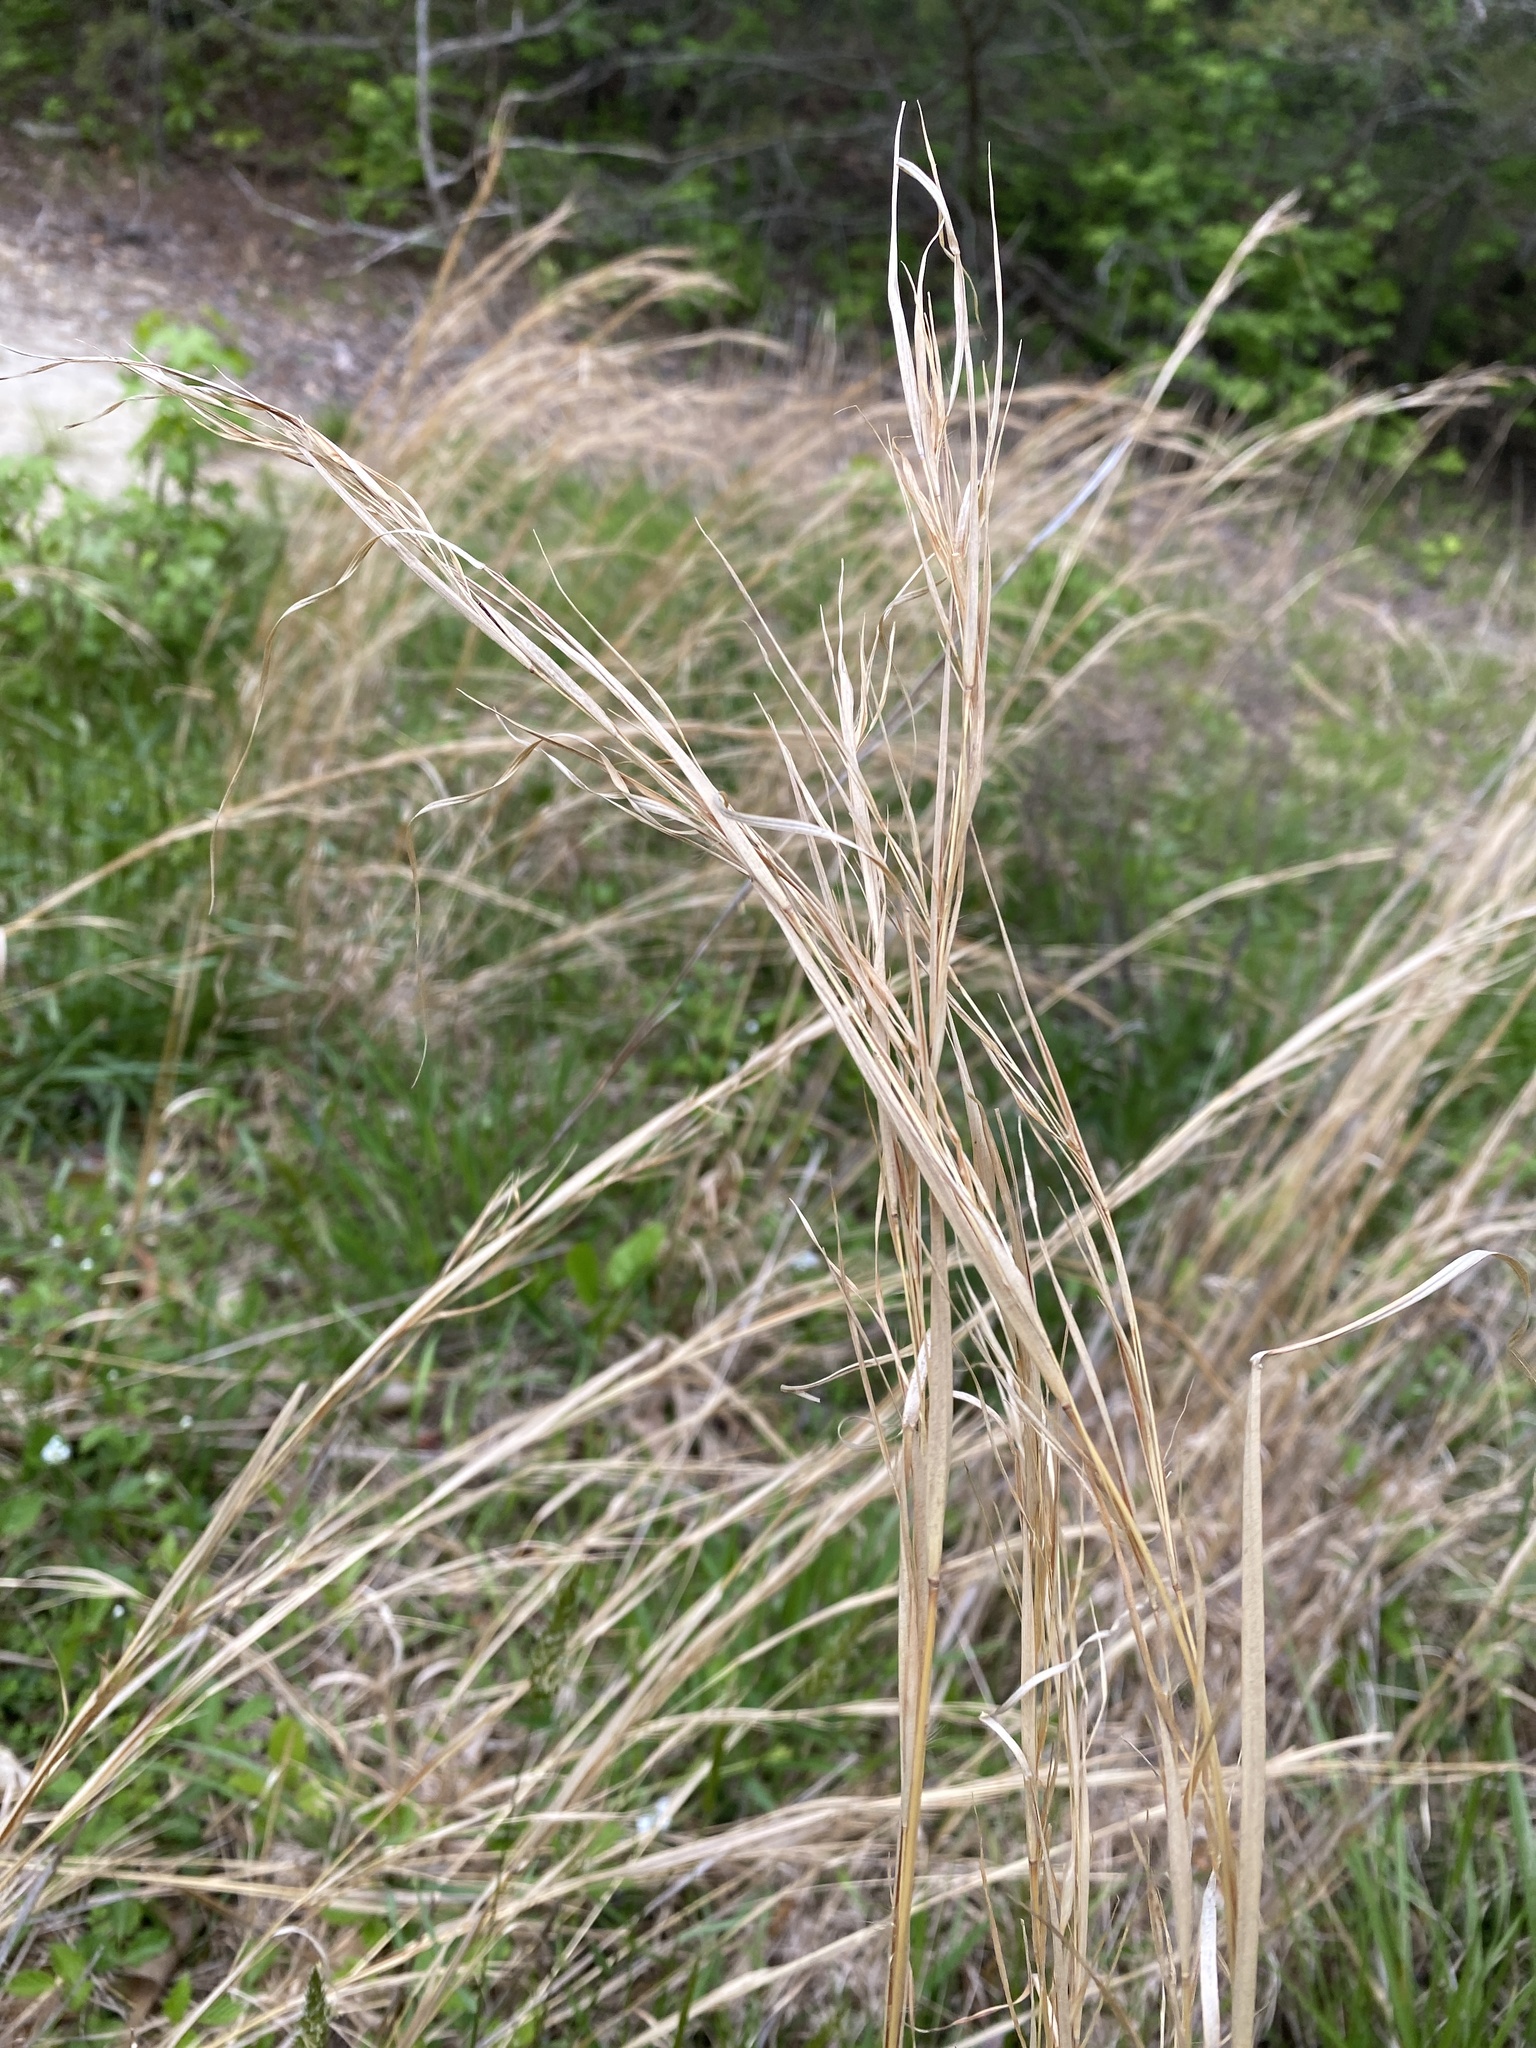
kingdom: Plantae
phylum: Tracheophyta
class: Liliopsida
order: Poales
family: Poaceae
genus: Andropogon
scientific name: Andropogon virginicus
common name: Broomsedge bluestem
